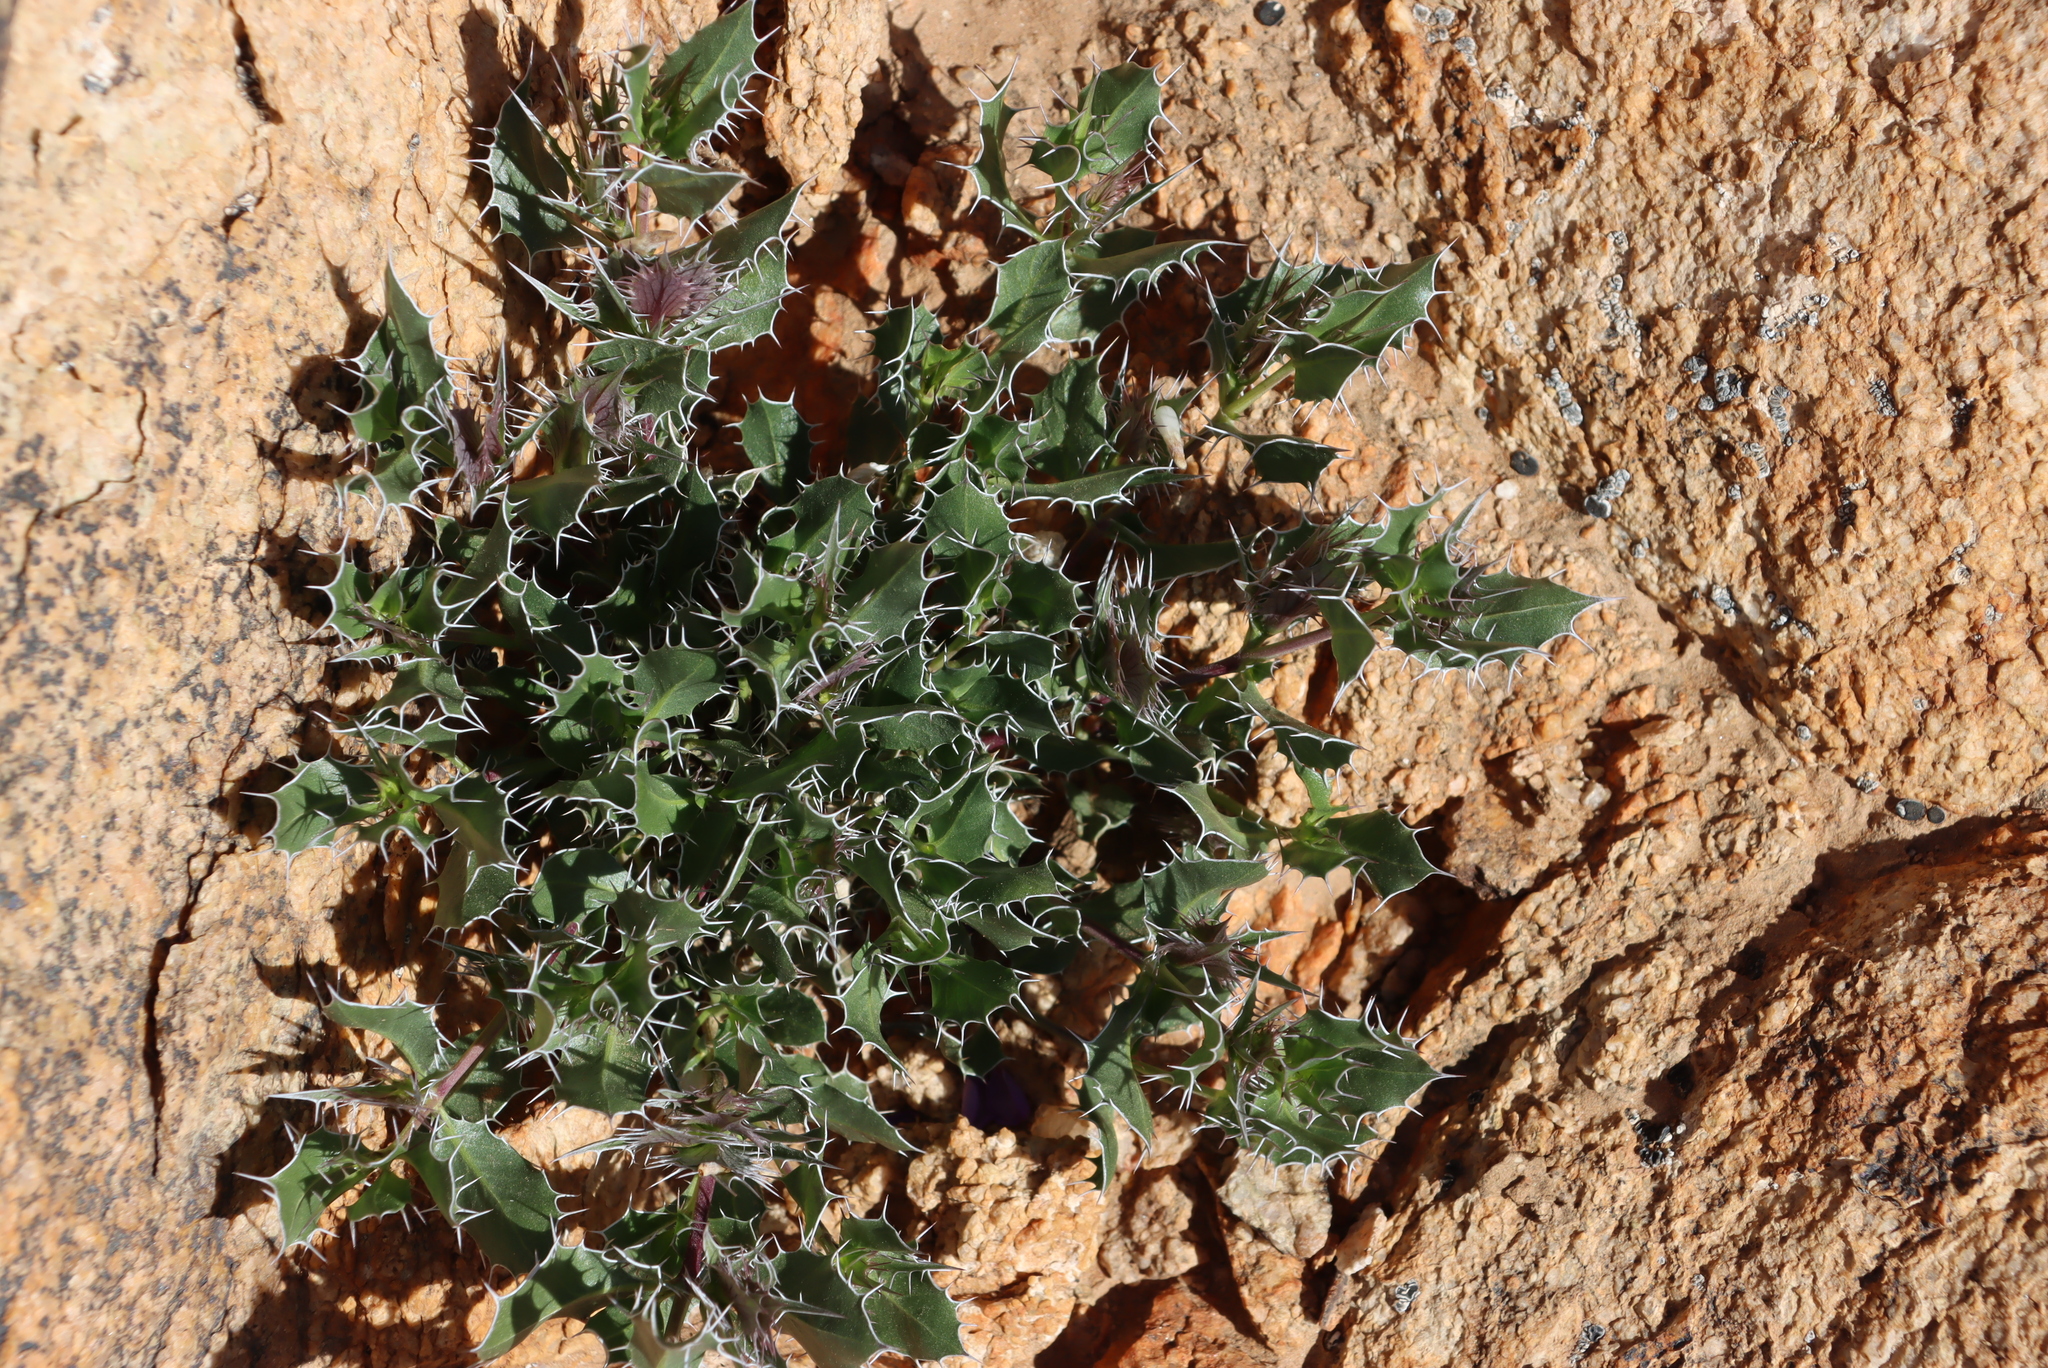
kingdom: Plantae
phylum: Tracheophyta
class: Magnoliopsida
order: Lamiales
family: Acanthaceae
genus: Barleria
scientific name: Barleria rigida
